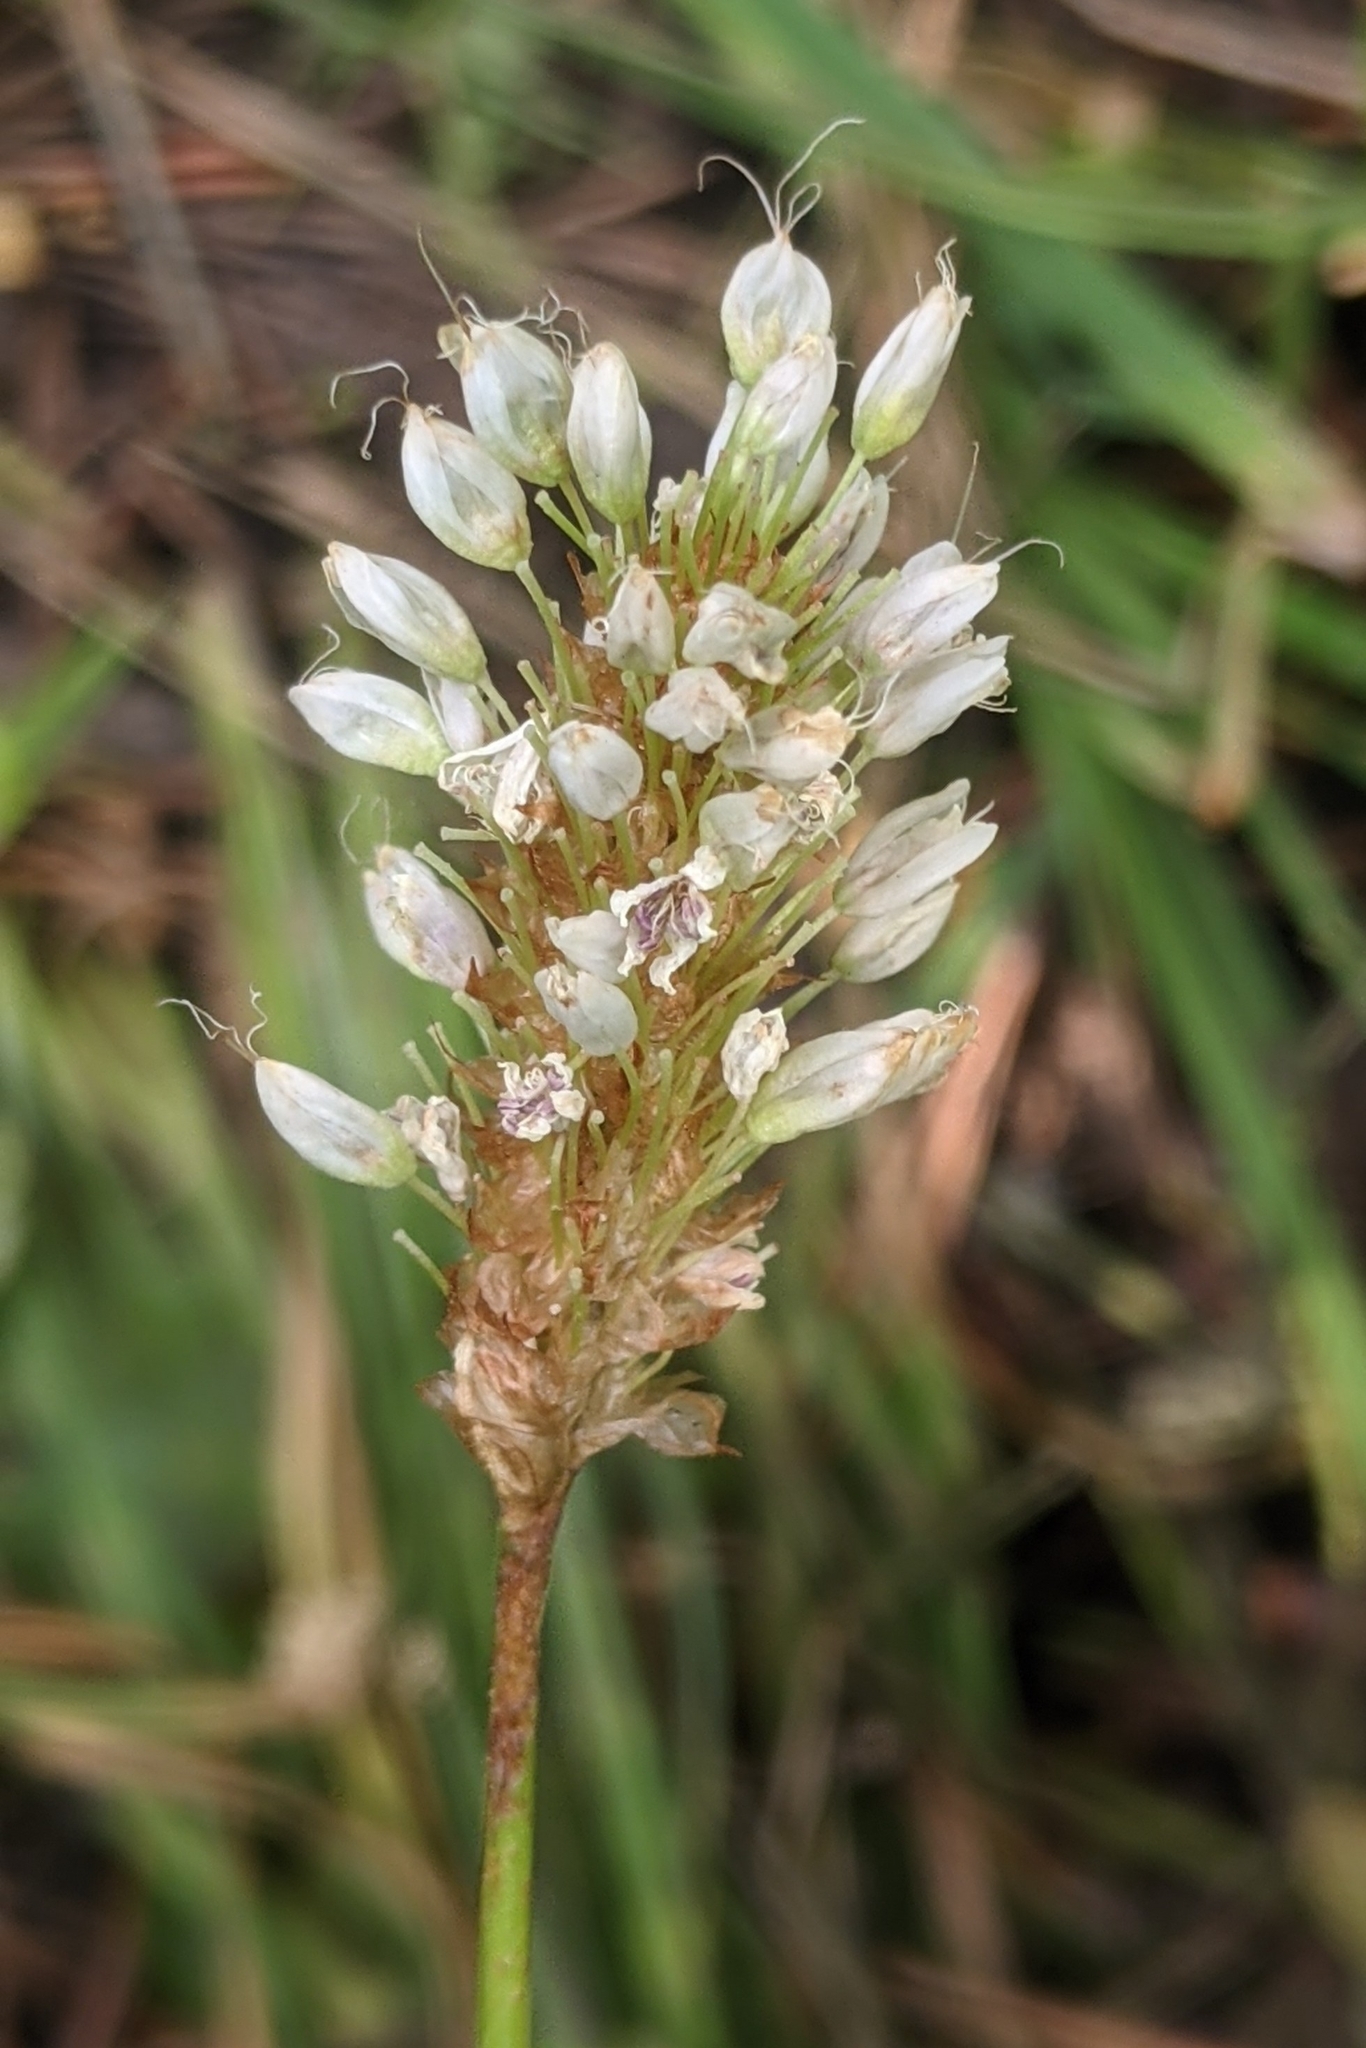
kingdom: Plantae
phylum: Tracheophyta
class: Magnoliopsida
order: Caryophyllales
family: Polygonaceae
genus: Bistorta
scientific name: Bistorta bistortoides
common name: American bistort
